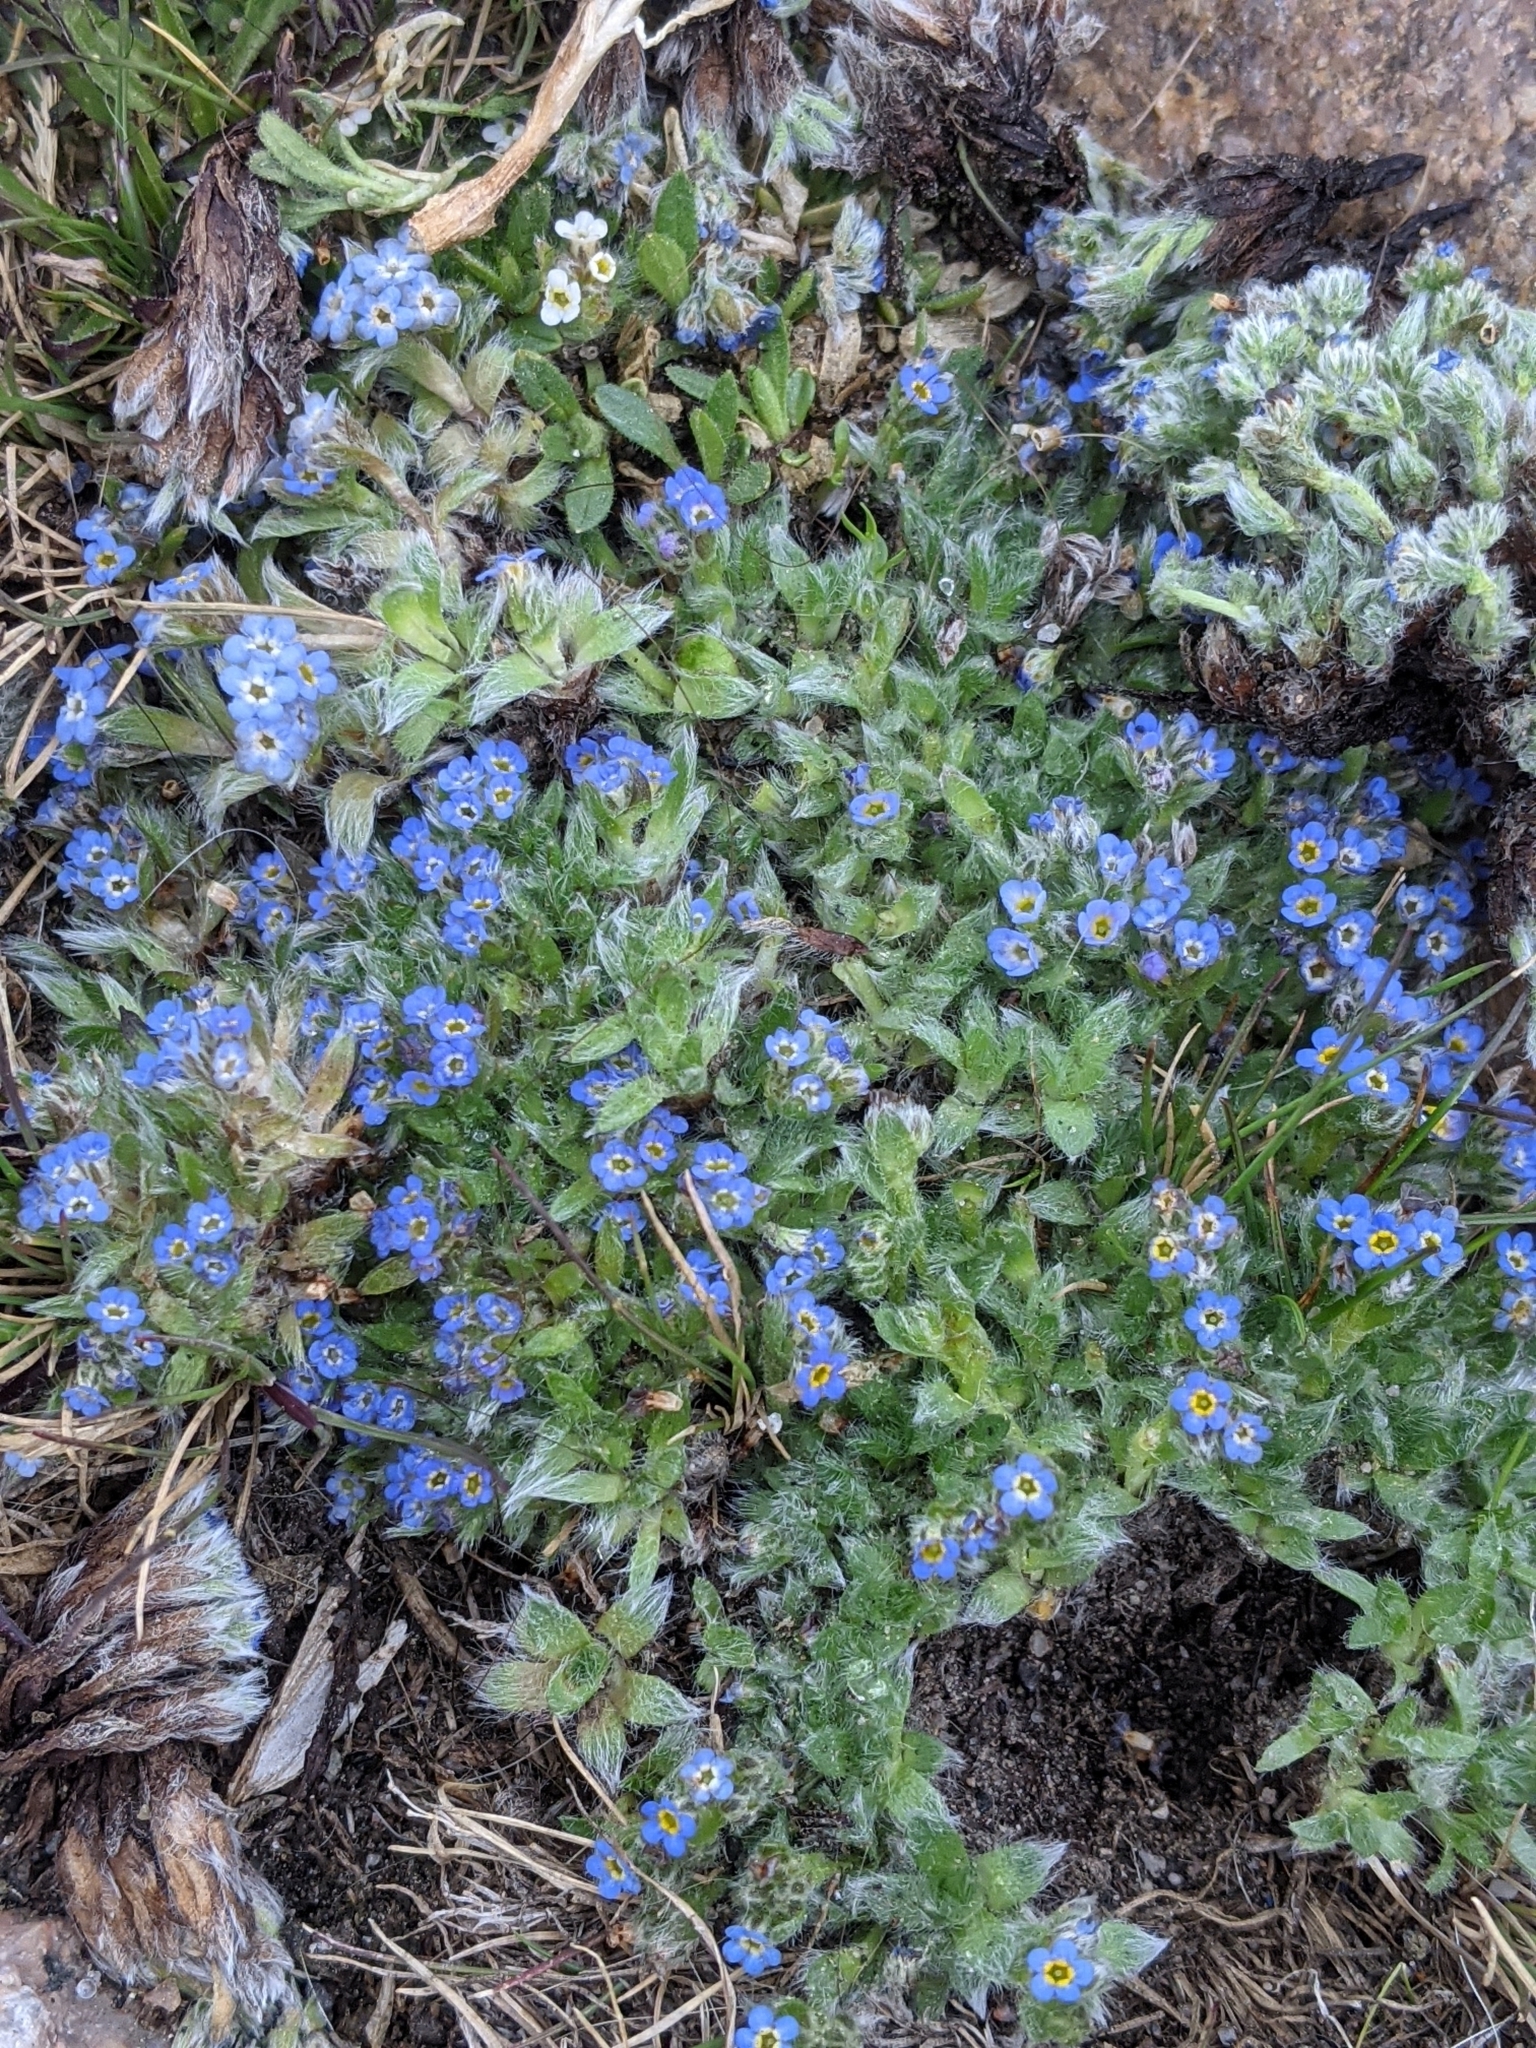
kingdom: Plantae
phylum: Tracheophyta
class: Magnoliopsida
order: Boraginales
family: Boraginaceae
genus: Eritrichium
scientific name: Eritrichium argenteum
